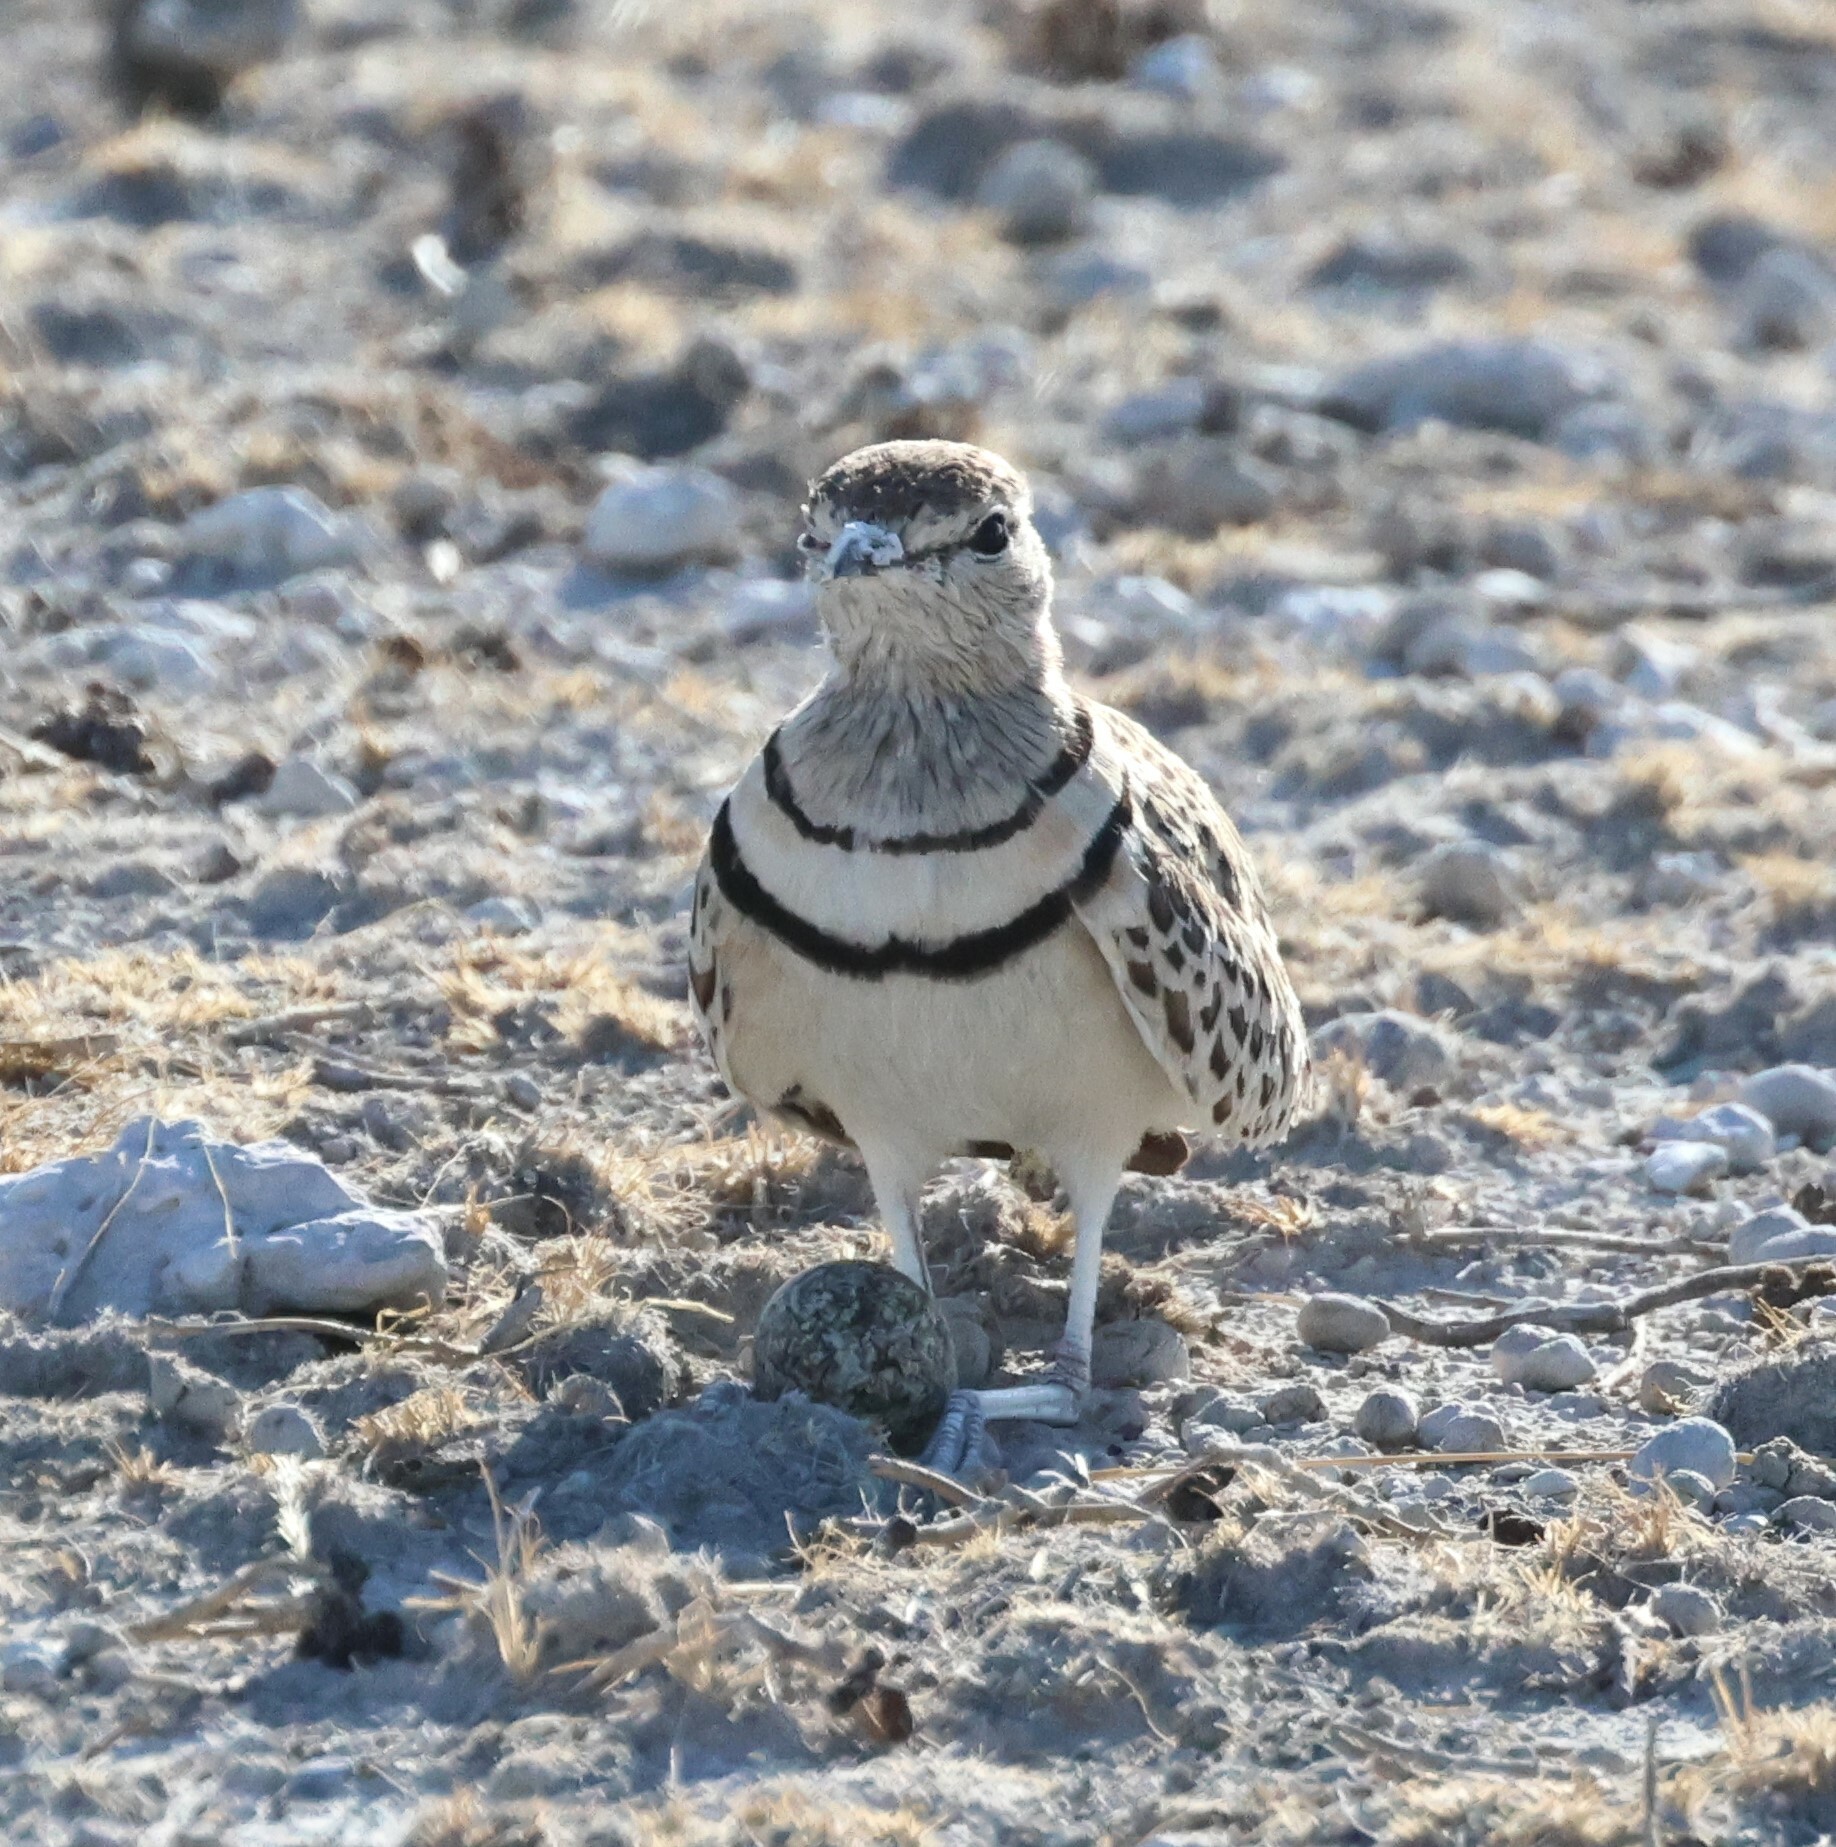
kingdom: Animalia
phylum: Chordata
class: Aves
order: Charadriiformes
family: Glareolidae
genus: Rhinoptilus
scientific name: Rhinoptilus africanus
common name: Double-banded courser
